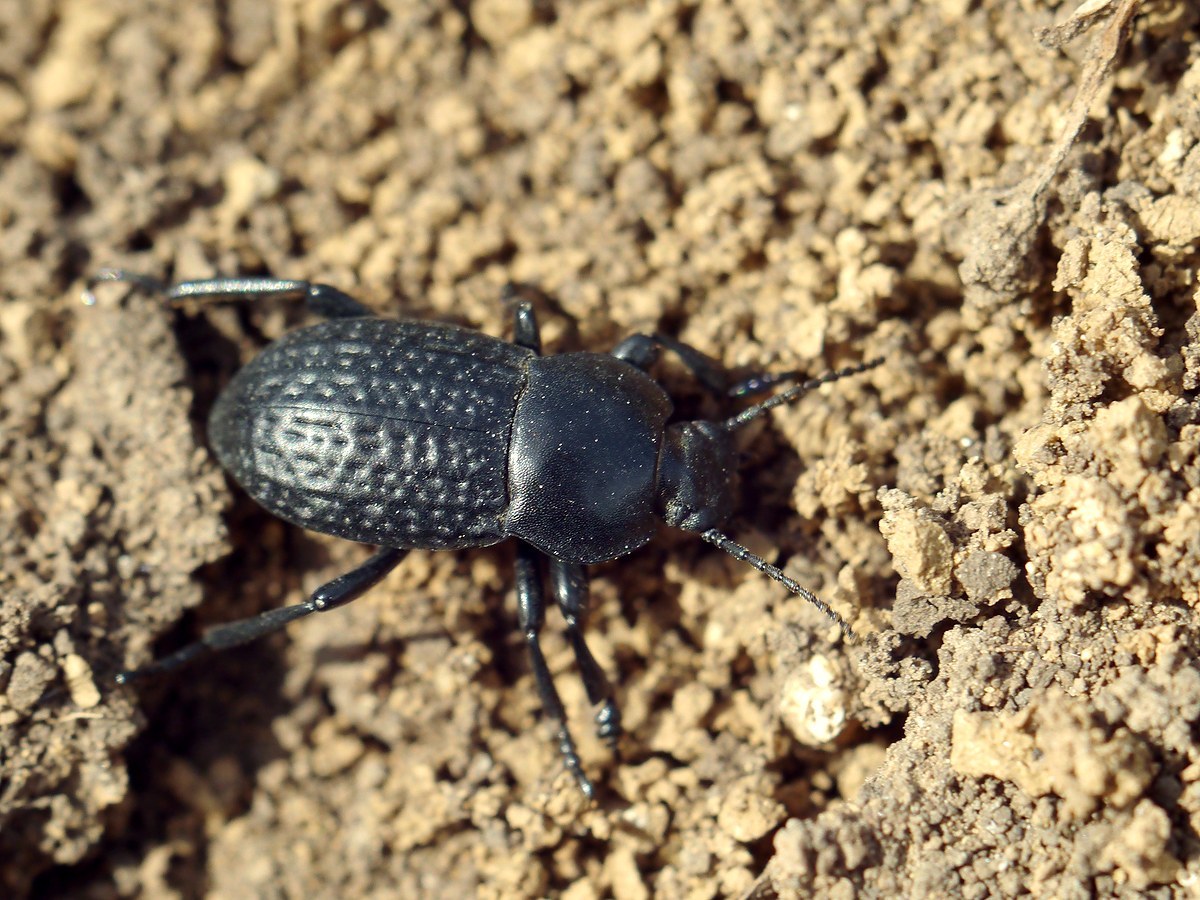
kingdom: Animalia
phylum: Arthropoda
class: Insecta
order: Coleoptera
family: Tenebrionidae
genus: Dendarus
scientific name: Dendarus punctatus
